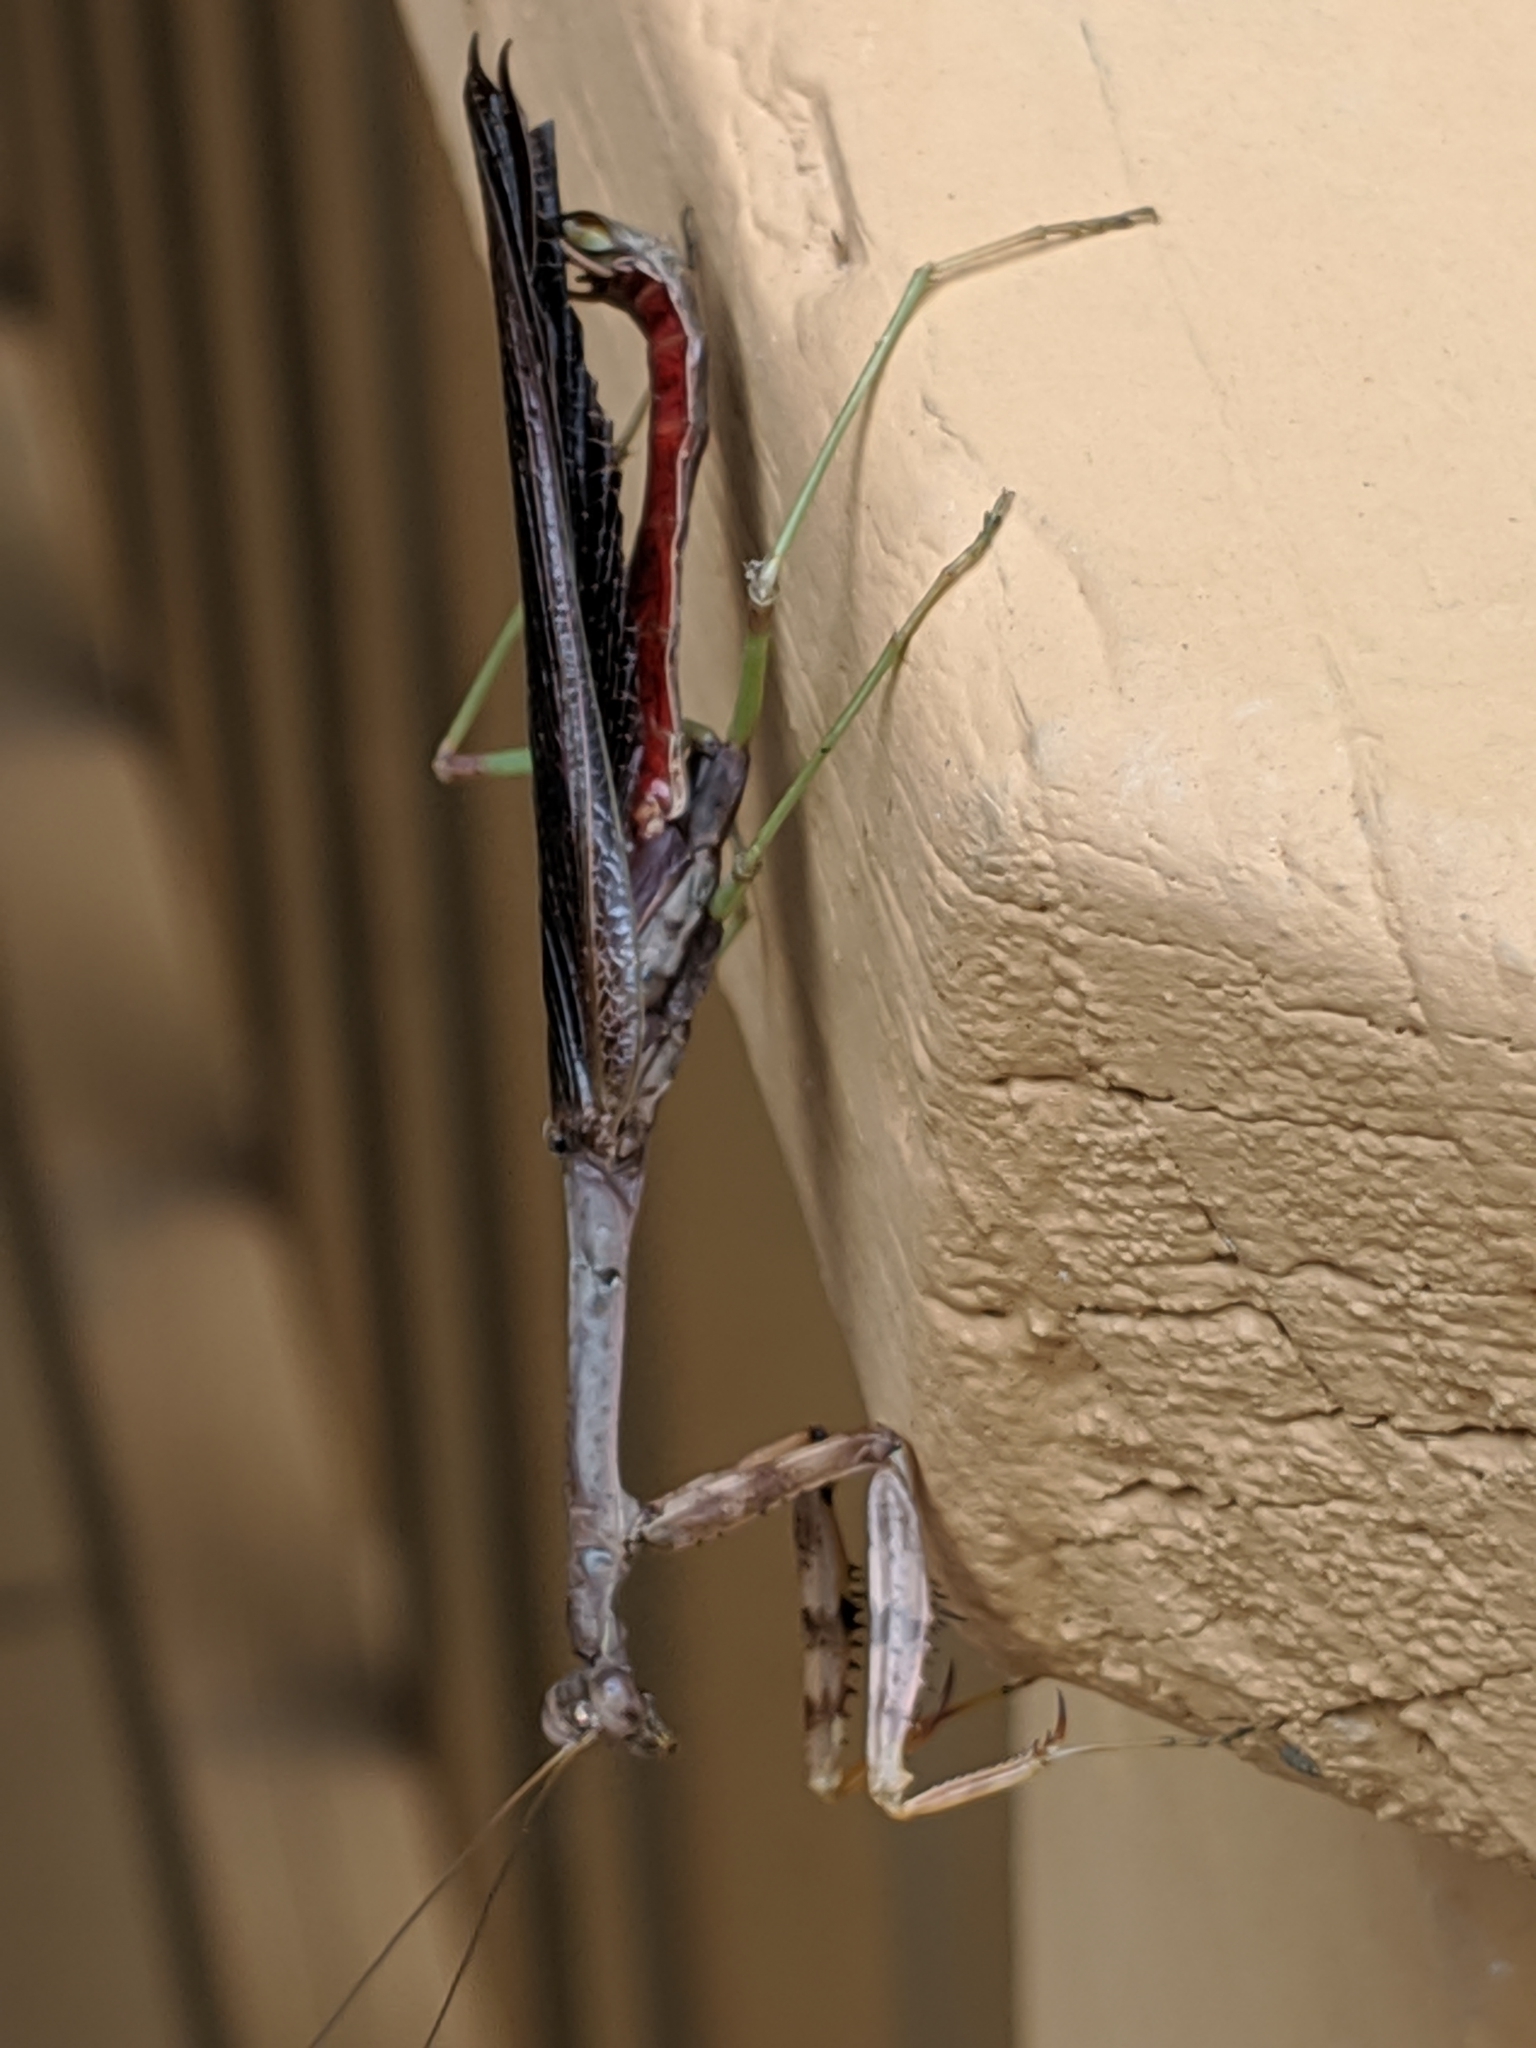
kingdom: Animalia
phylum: Arthropoda
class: Insecta
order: Mantodea
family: Mantidae
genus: Stagmomantis
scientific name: Stagmomantis carolina
